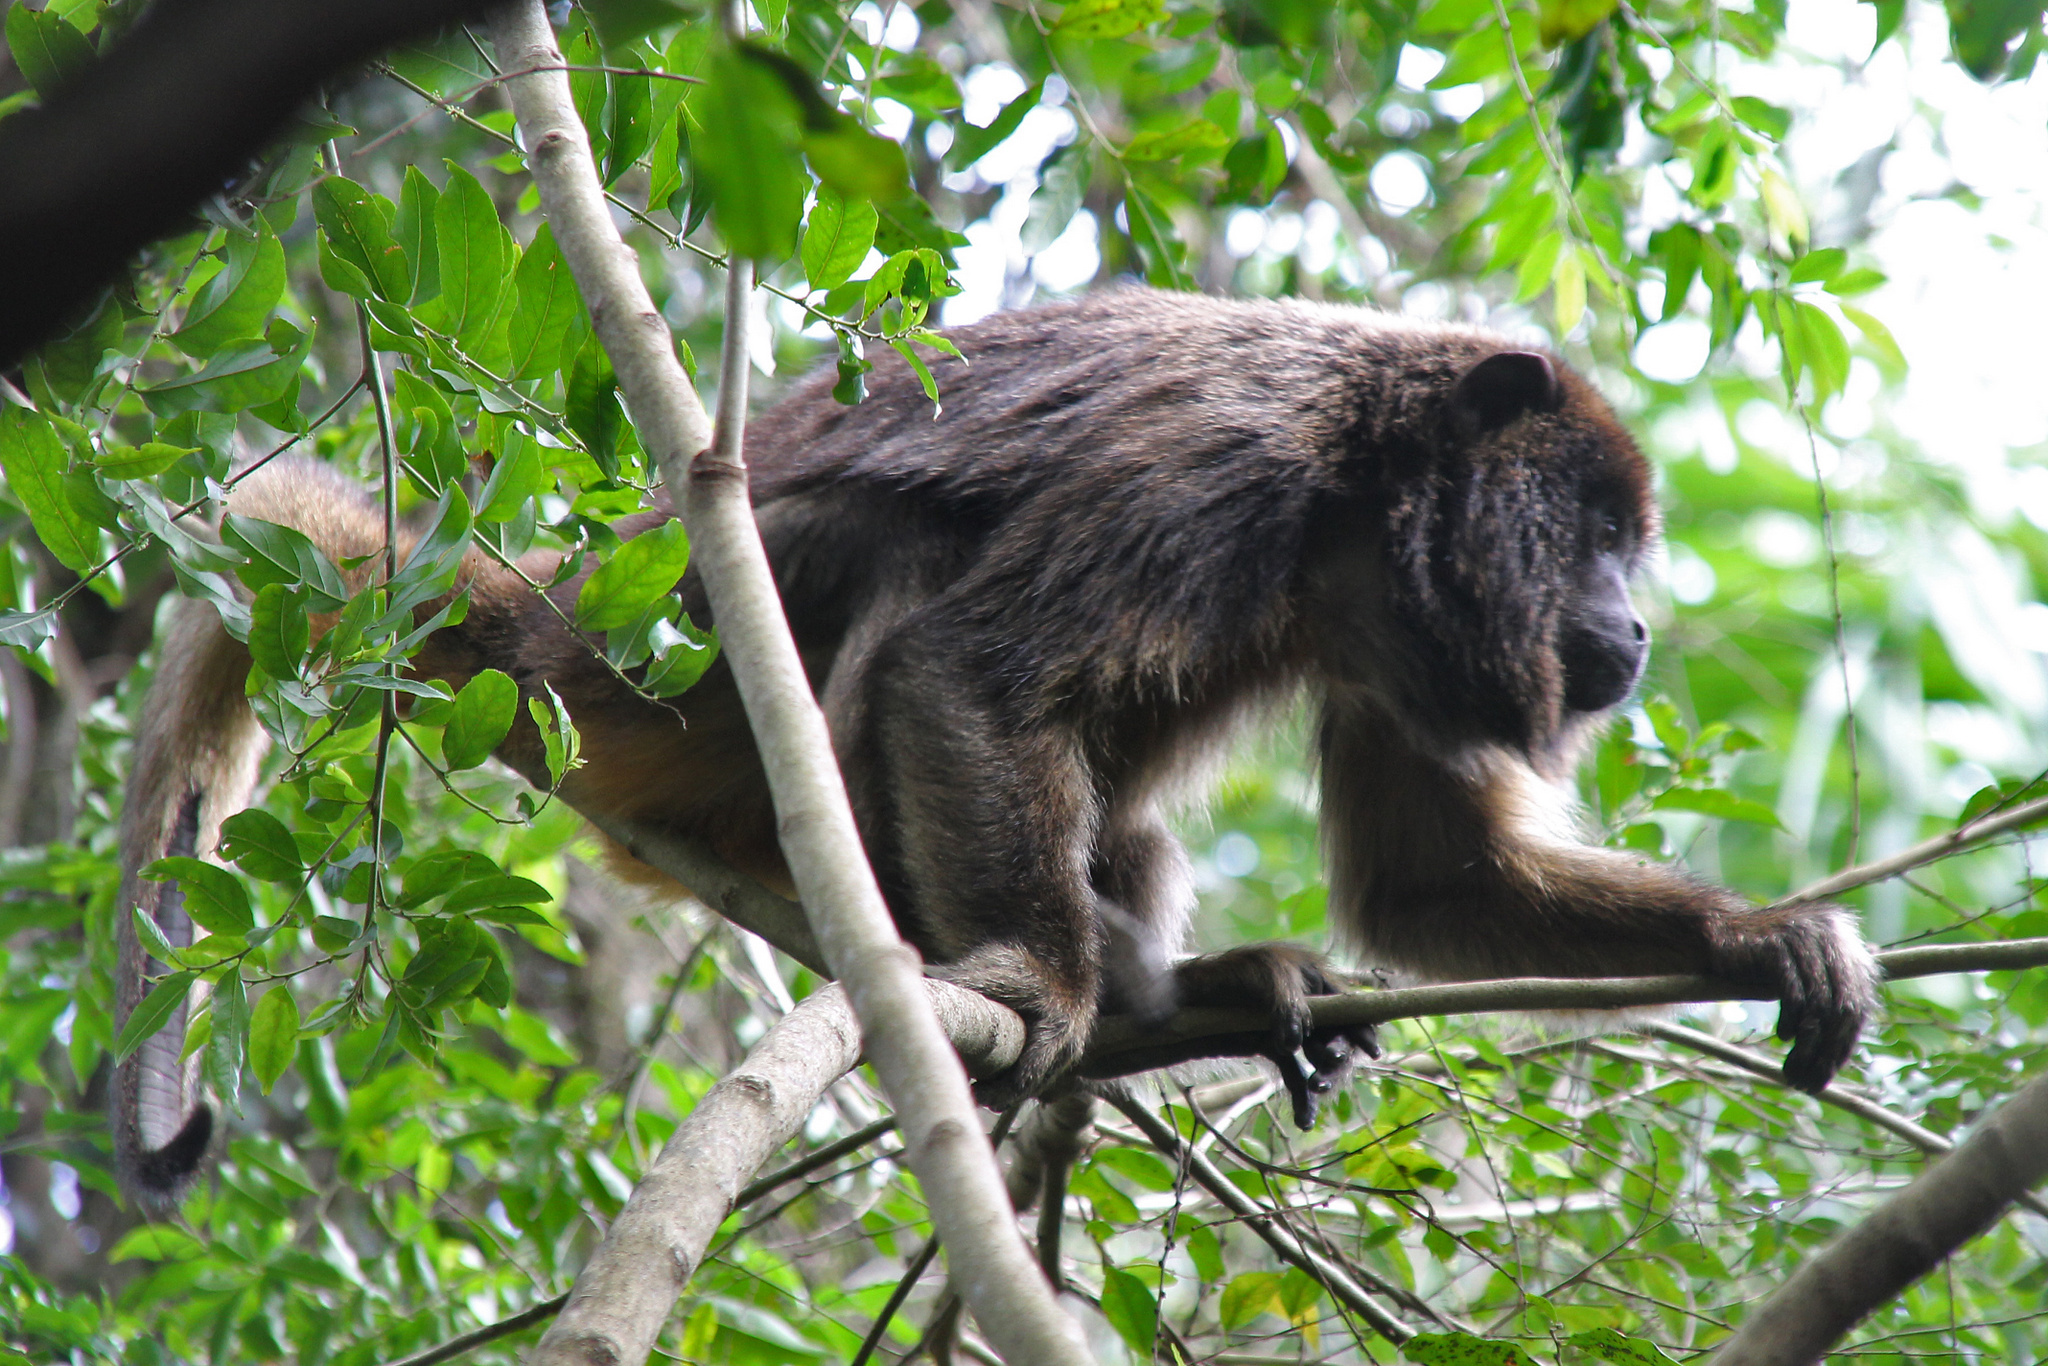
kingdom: Animalia
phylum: Chordata
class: Mammalia
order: Primates
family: Atelidae
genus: Alouatta
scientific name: Alouatta caraya
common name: Black howler
